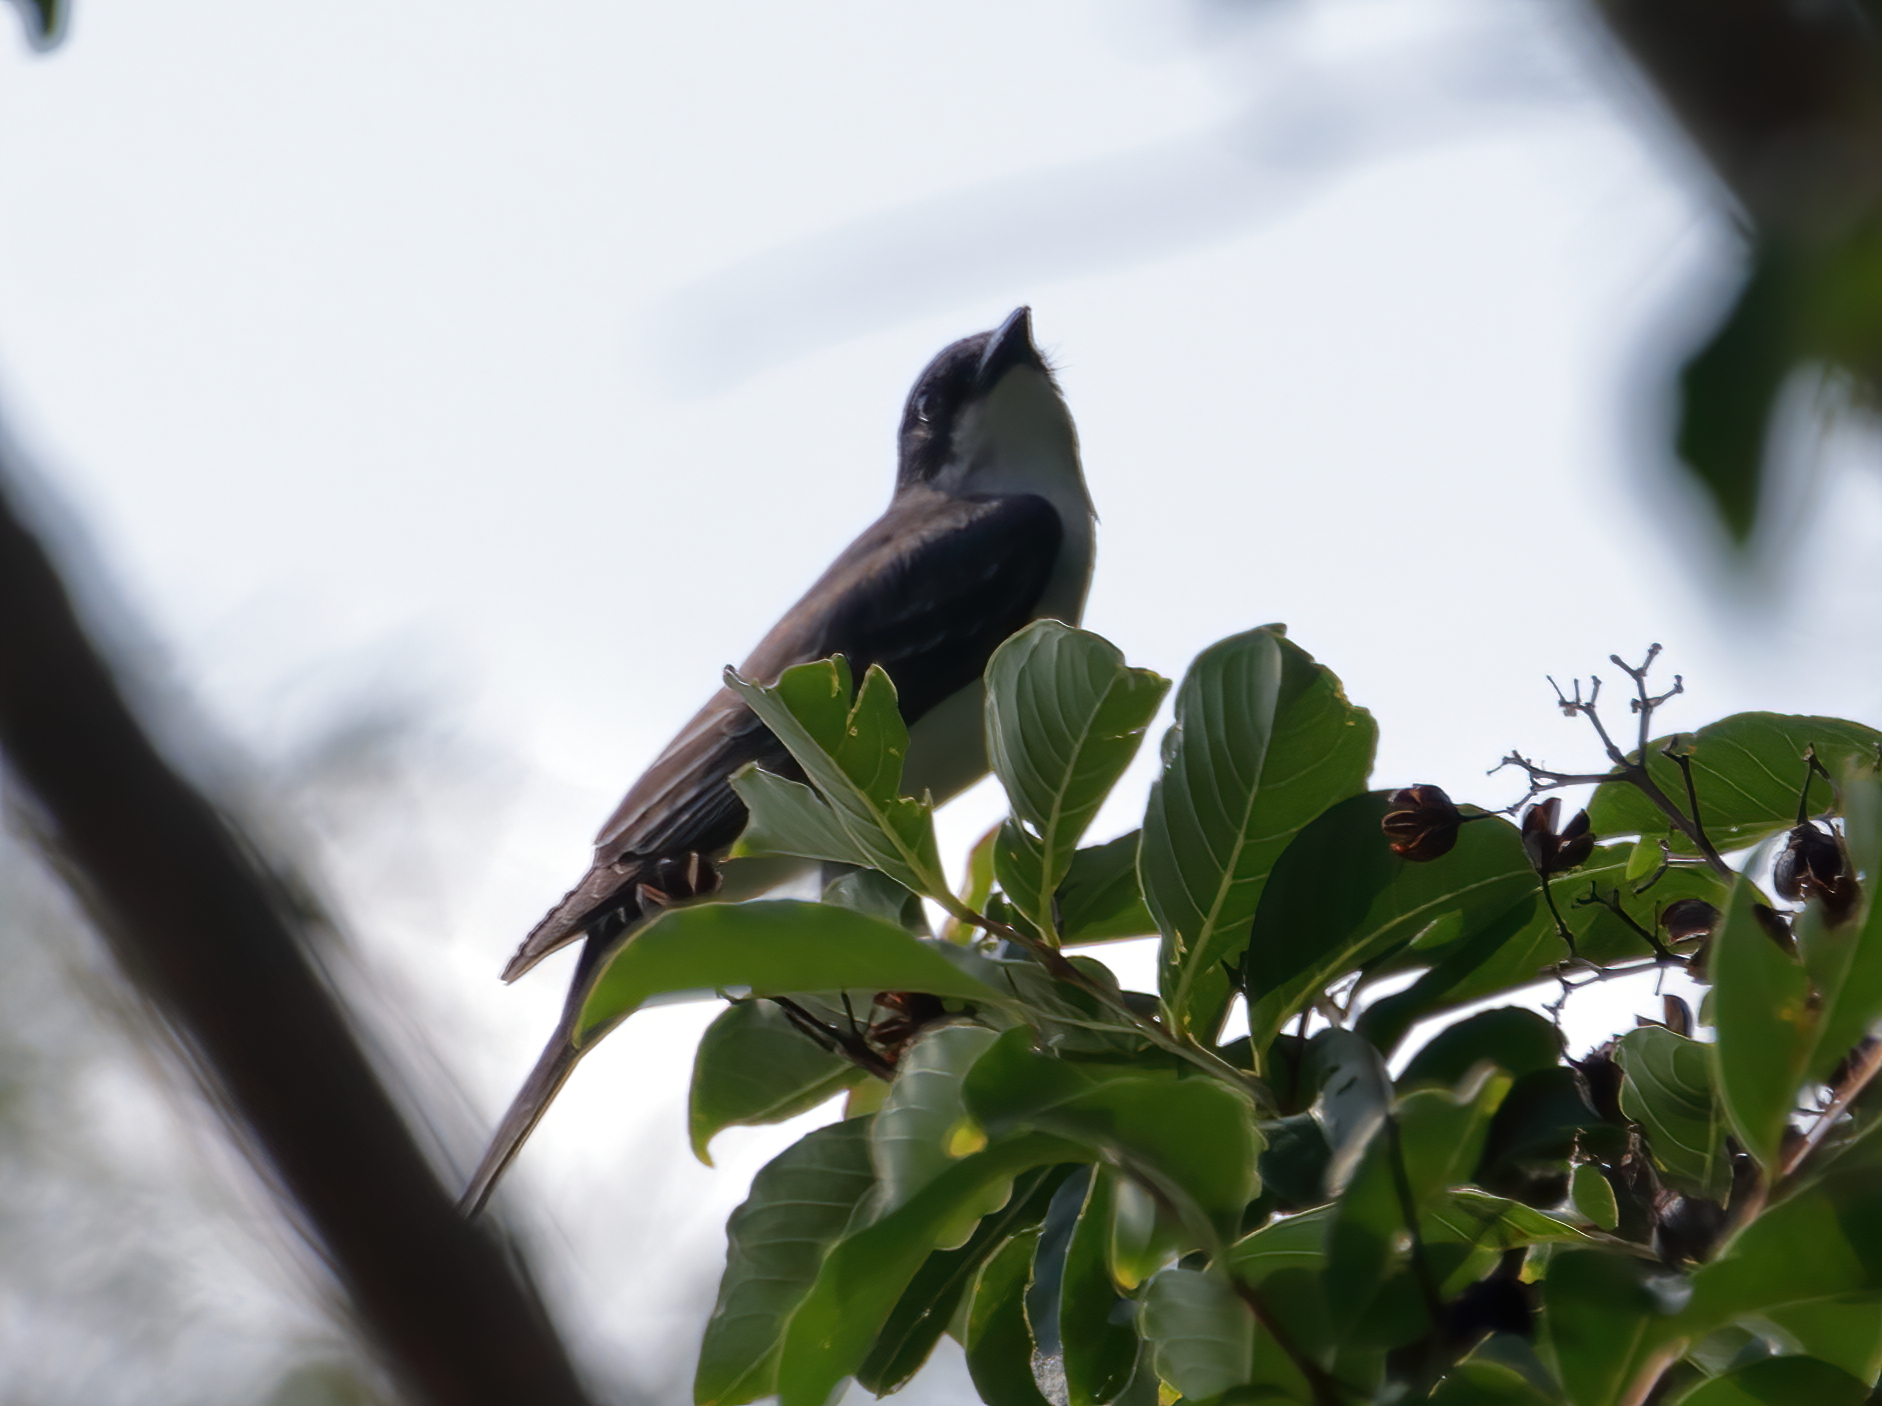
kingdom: Animalia
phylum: Chordata
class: Aves
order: Passeriformes
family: Tyrannidae
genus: Tyrannus
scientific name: Tyrannus tyrannus
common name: Eastern kingbird
